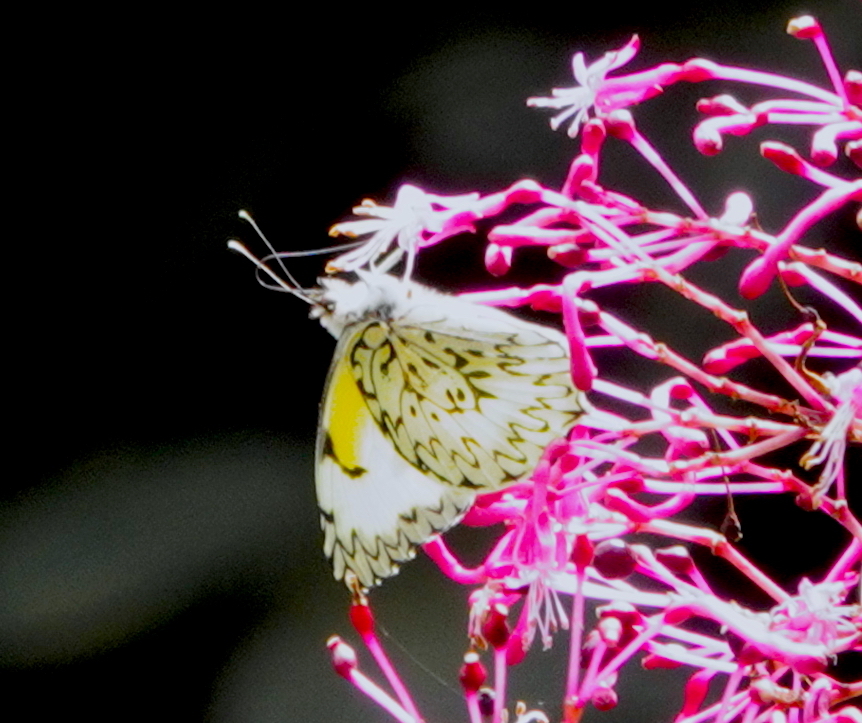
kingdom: Animalia
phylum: Arthropoda
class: Insecta
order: Lepidoptera
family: Pieridae
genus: Hesperocharis
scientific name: Hesperocharis graphites
